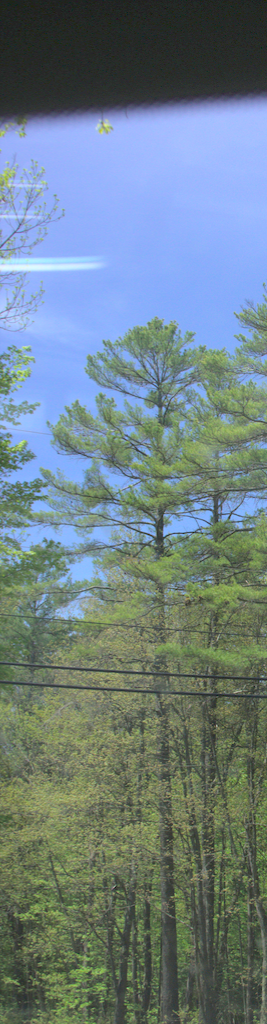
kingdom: Plantae
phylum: Tracheophyta
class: Pinopsida
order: Pinales
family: Pinaceae
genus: Pinus
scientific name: Pinus strobus
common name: Weymouth pine
